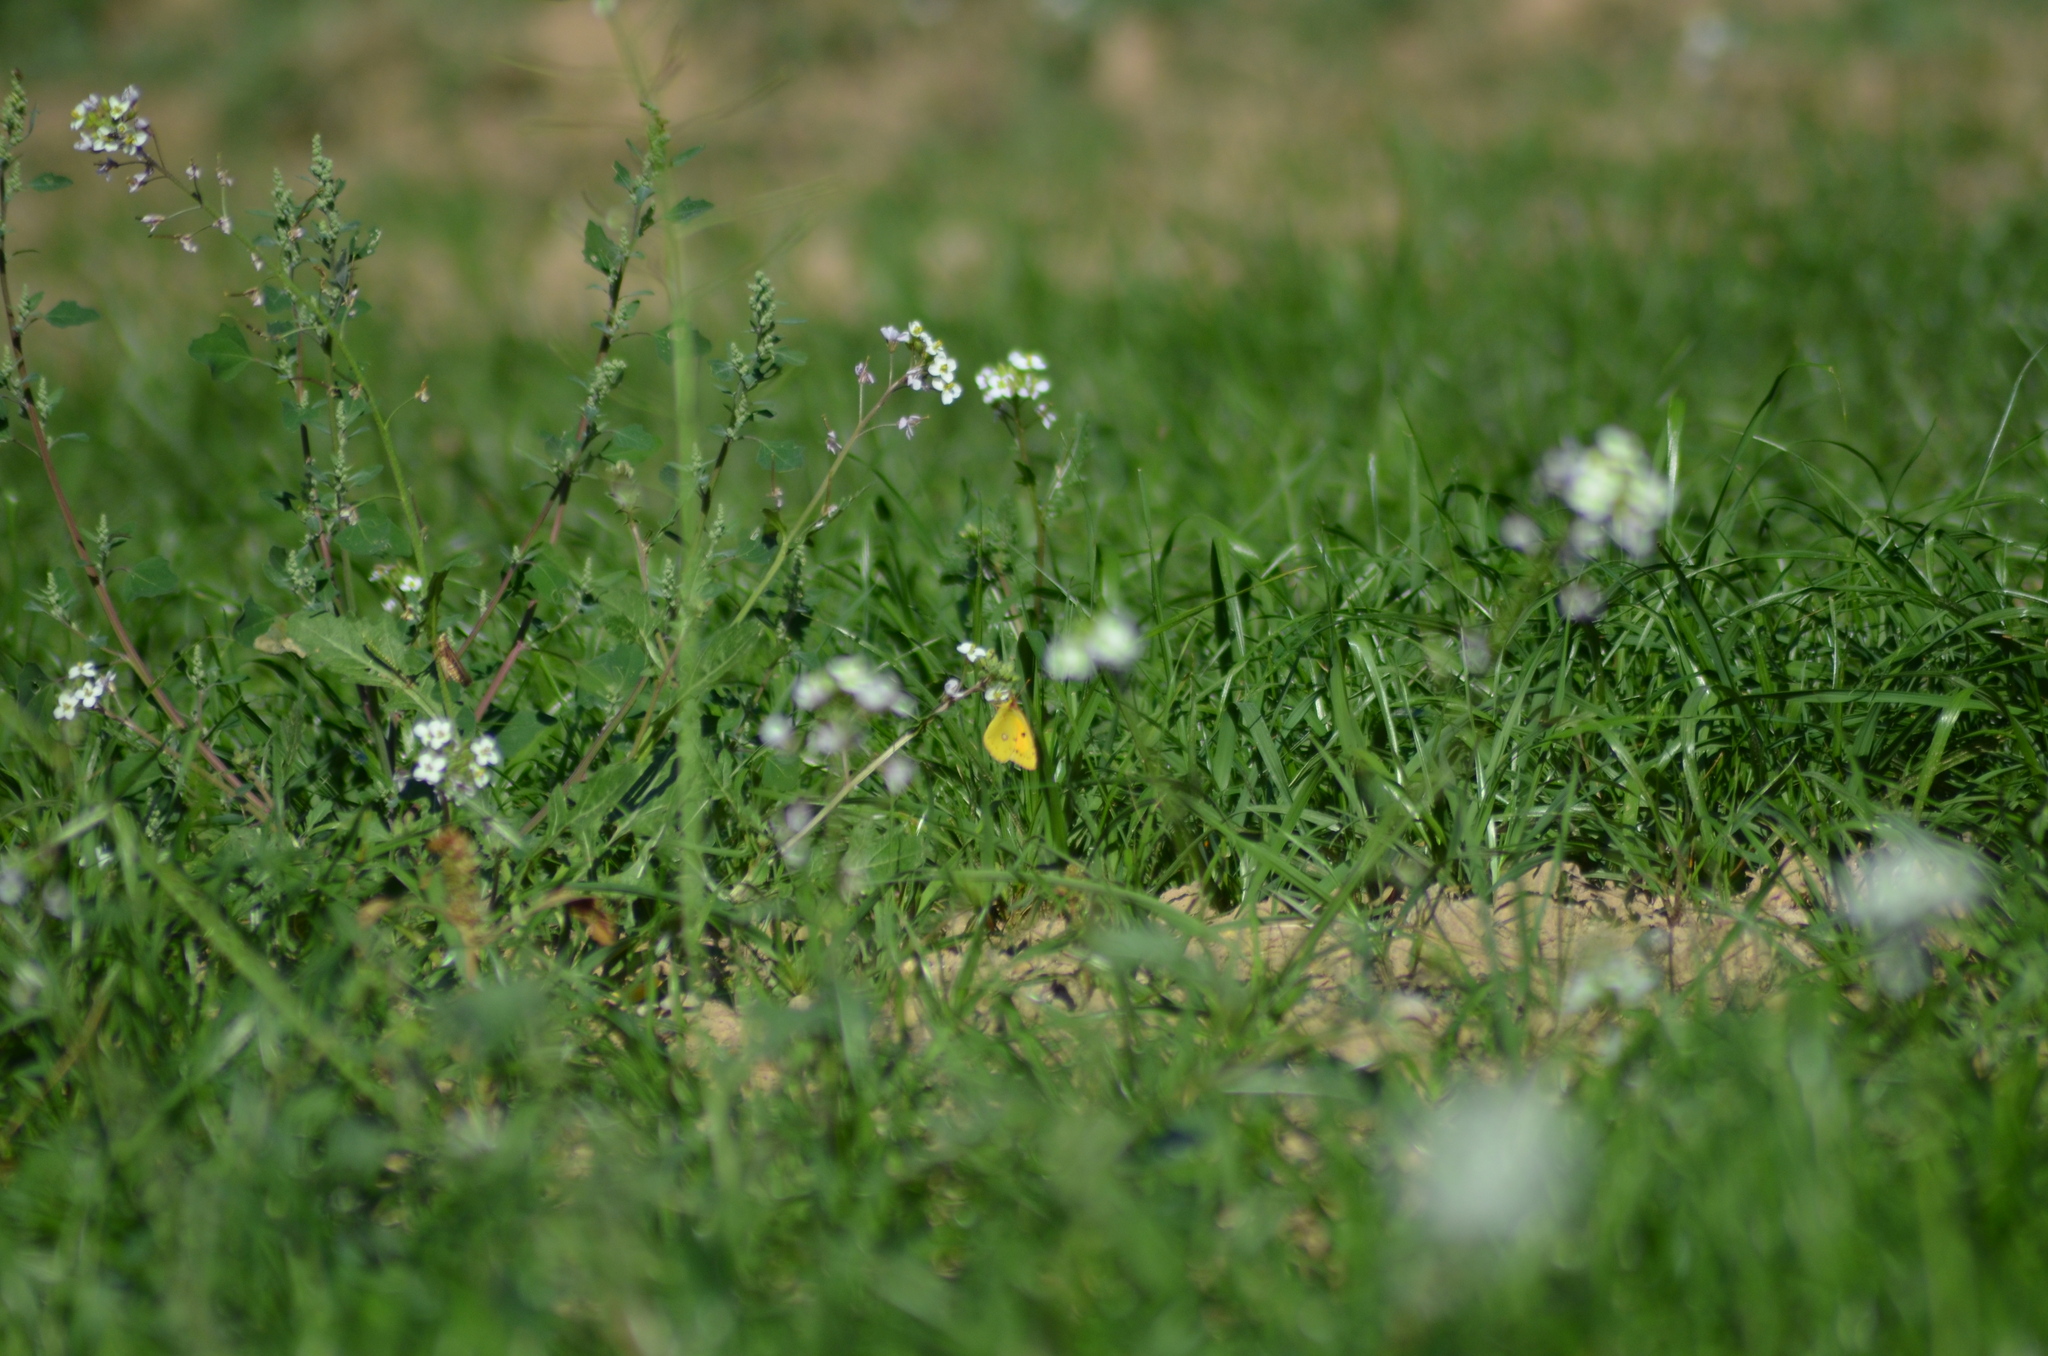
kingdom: Animalia
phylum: Arthropoda
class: Insecta
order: Lepidoptera
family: Pieridae
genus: Colias
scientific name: Colias croceus
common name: Clouded yellow
